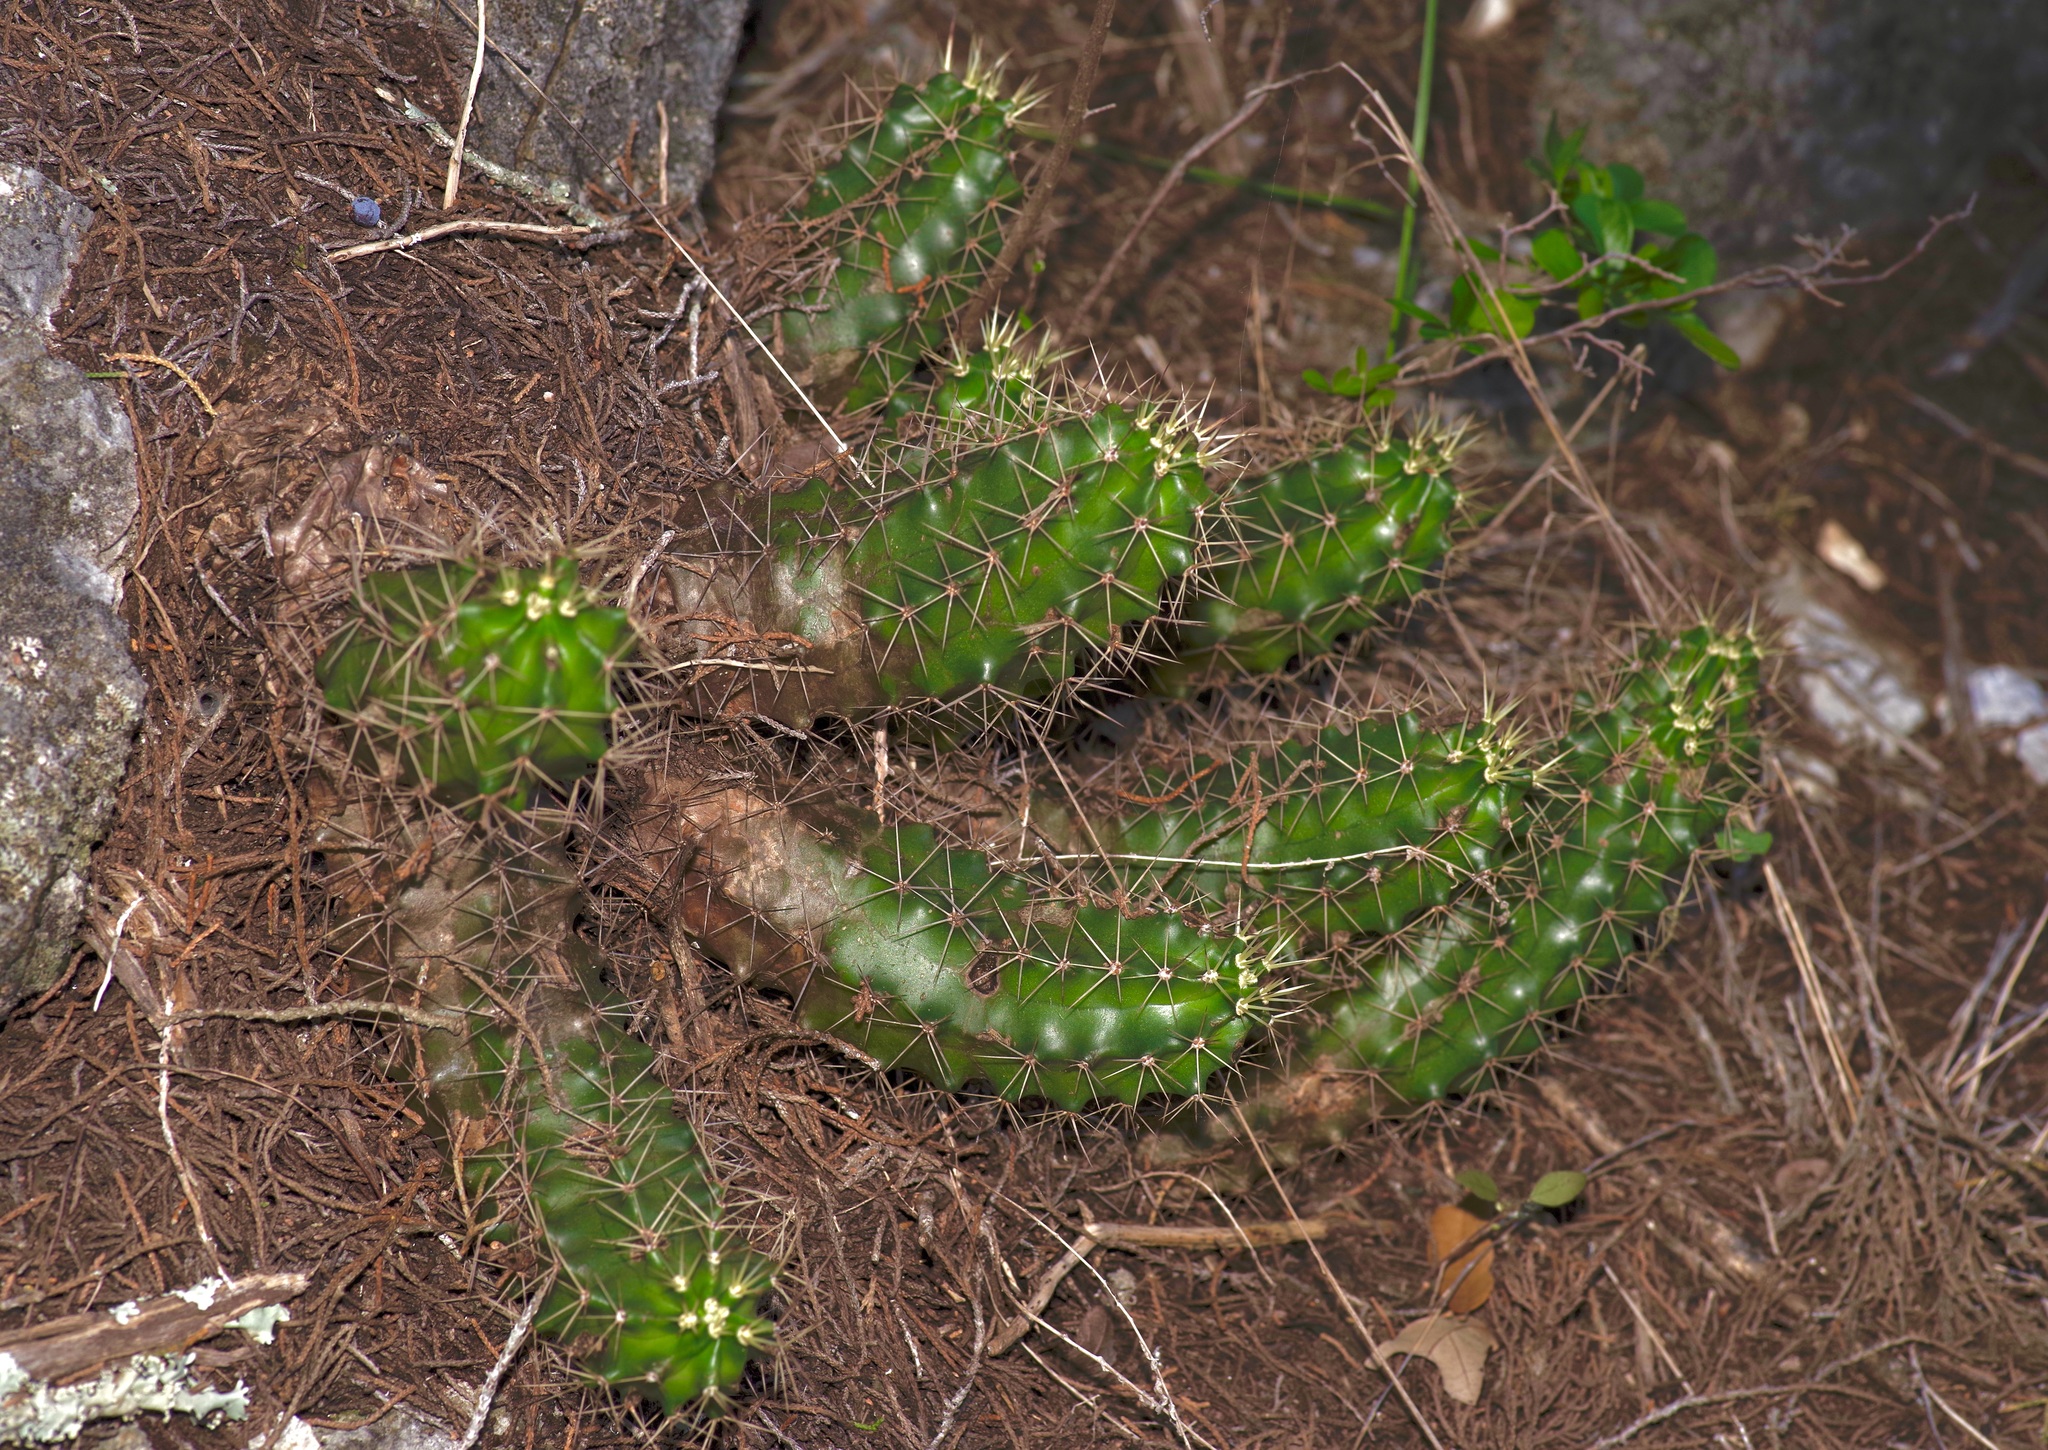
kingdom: Plantae
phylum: Tracheophyta
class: Magnoliopsida
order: Caryophyllales
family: Cactaceae
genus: Echinocereus
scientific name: Echinocereus coccineus
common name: Scarlet hedgehog cactus
